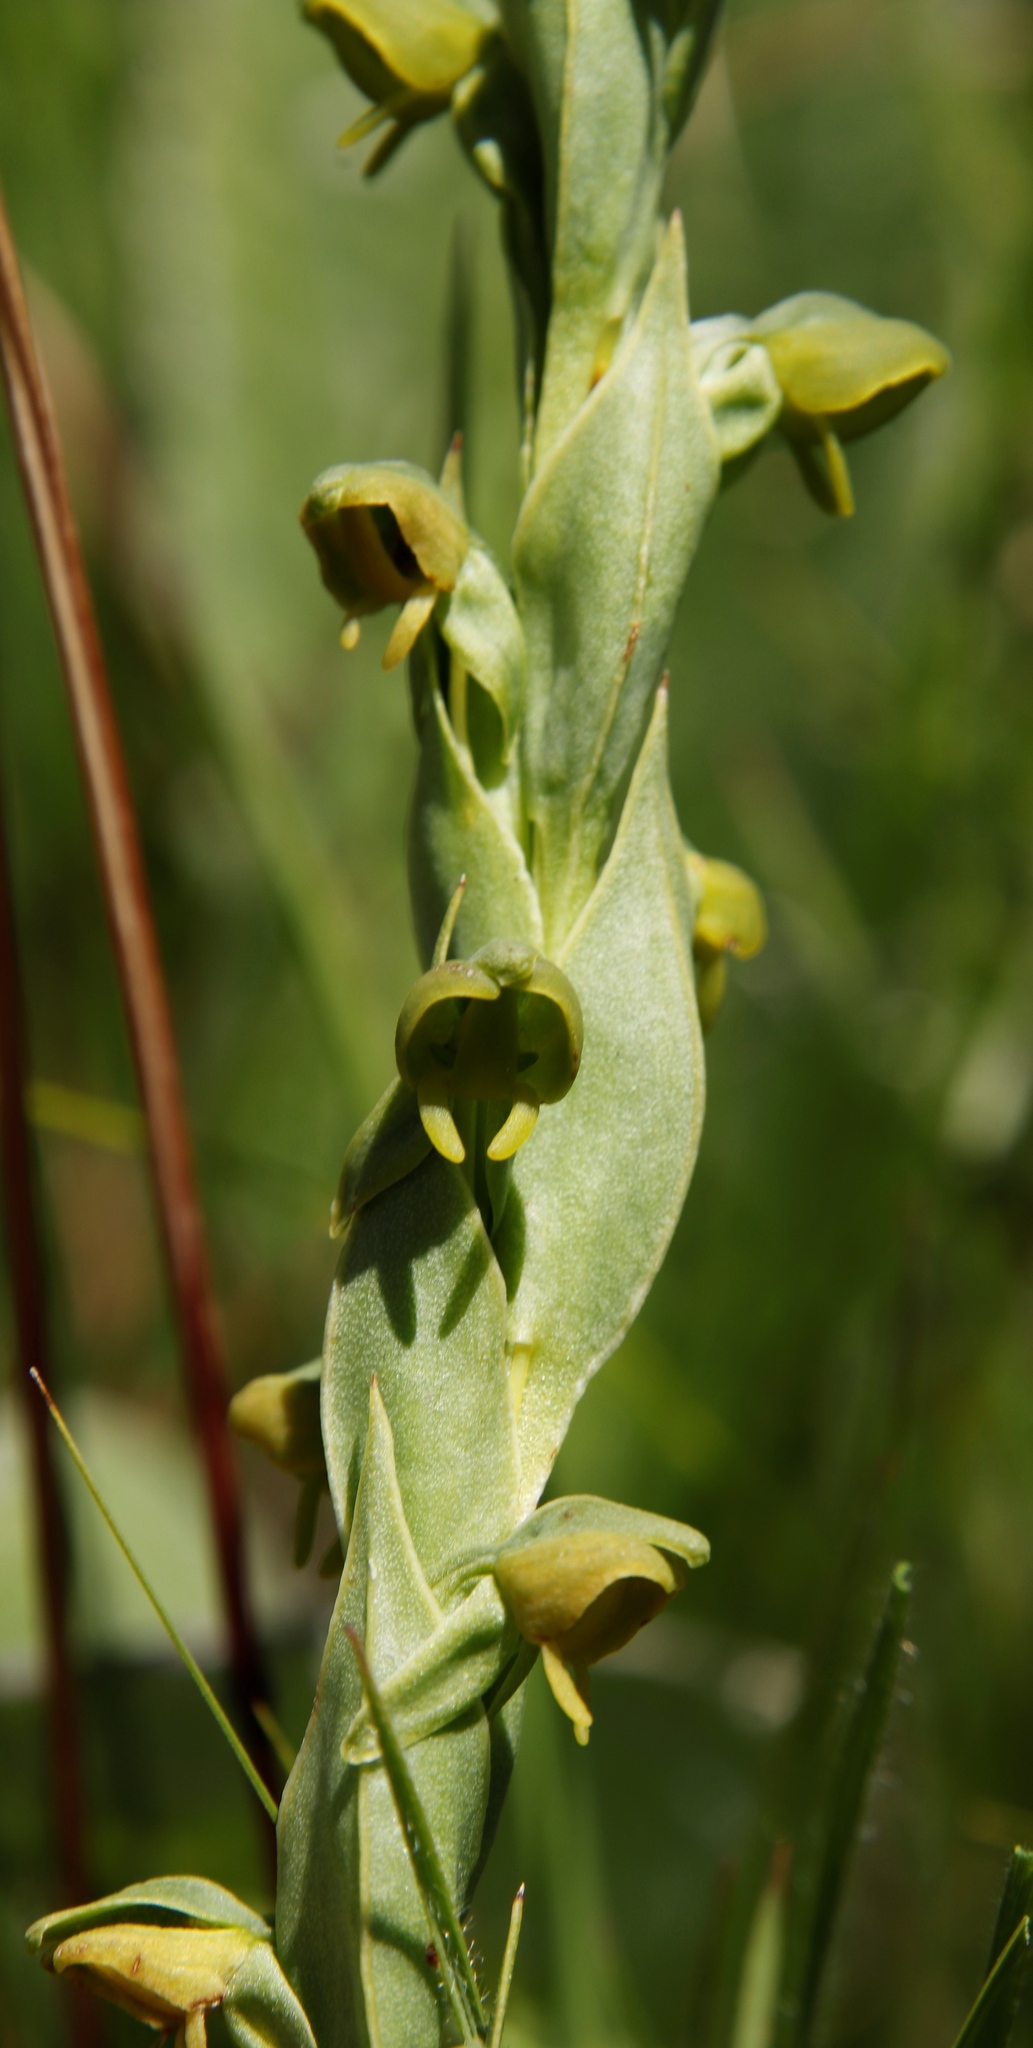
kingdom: Plantae
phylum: Tracheophyta
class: Liliopsida
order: Asparagales
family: Orchidaceae
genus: Habenaria
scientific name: Habenaria laevigata
